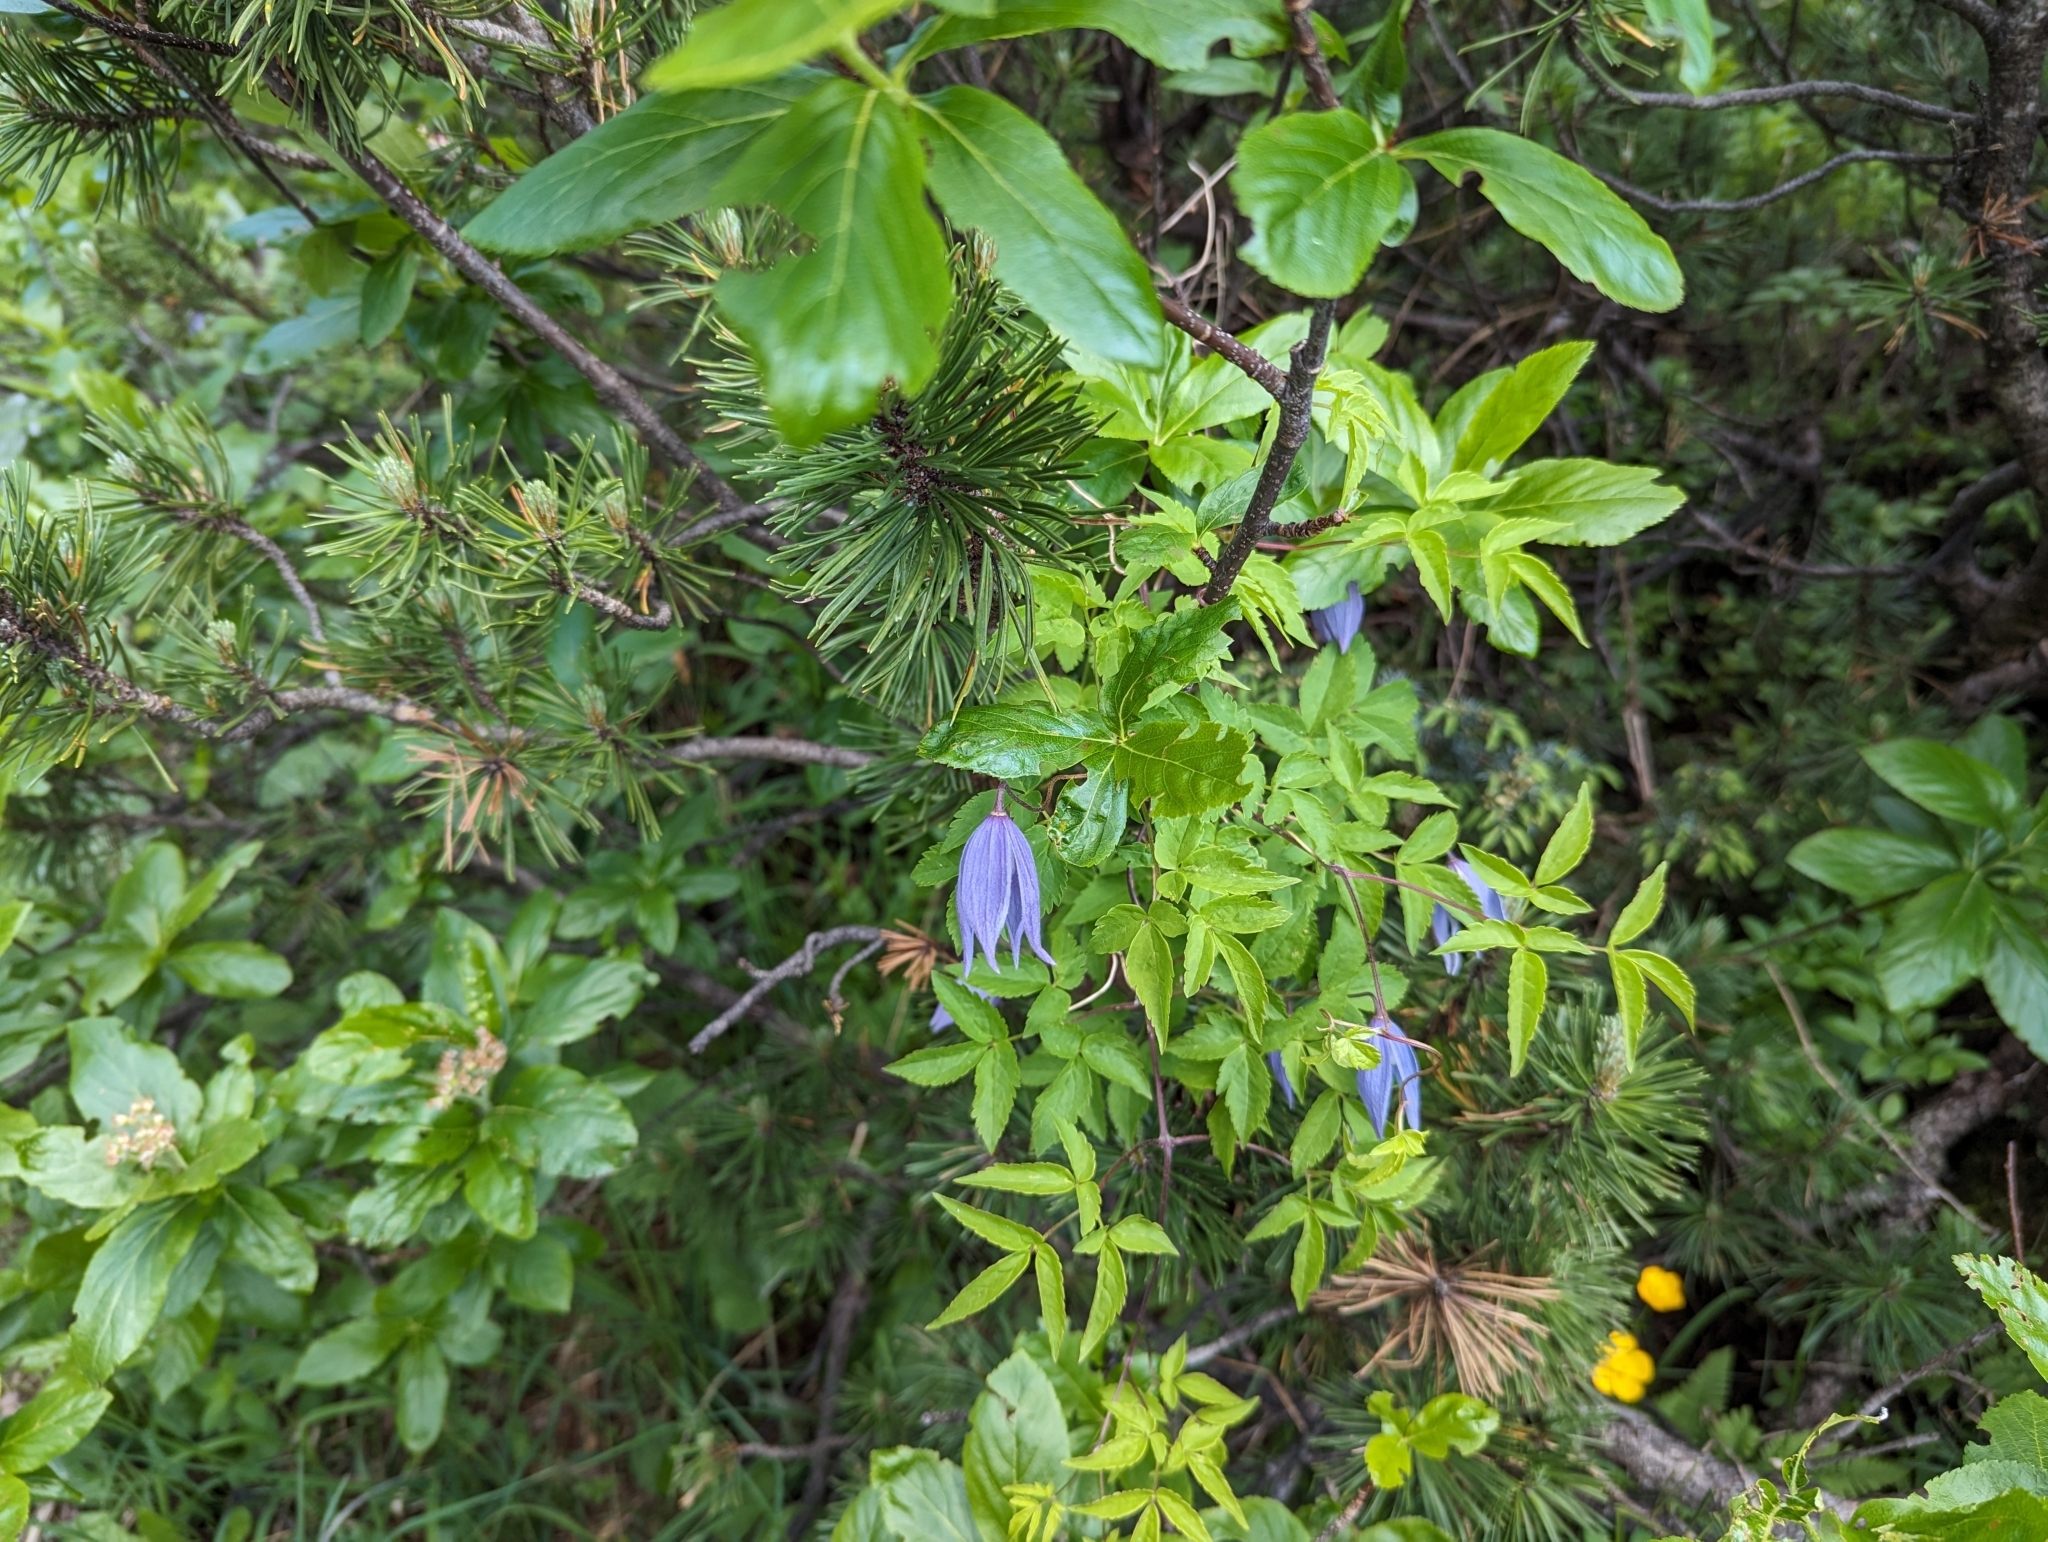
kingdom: Plantae
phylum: Tracheophyta
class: Magnoliopsida
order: Ranunculales
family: Ranunculaceae
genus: Clematis
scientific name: Clematis alpina
